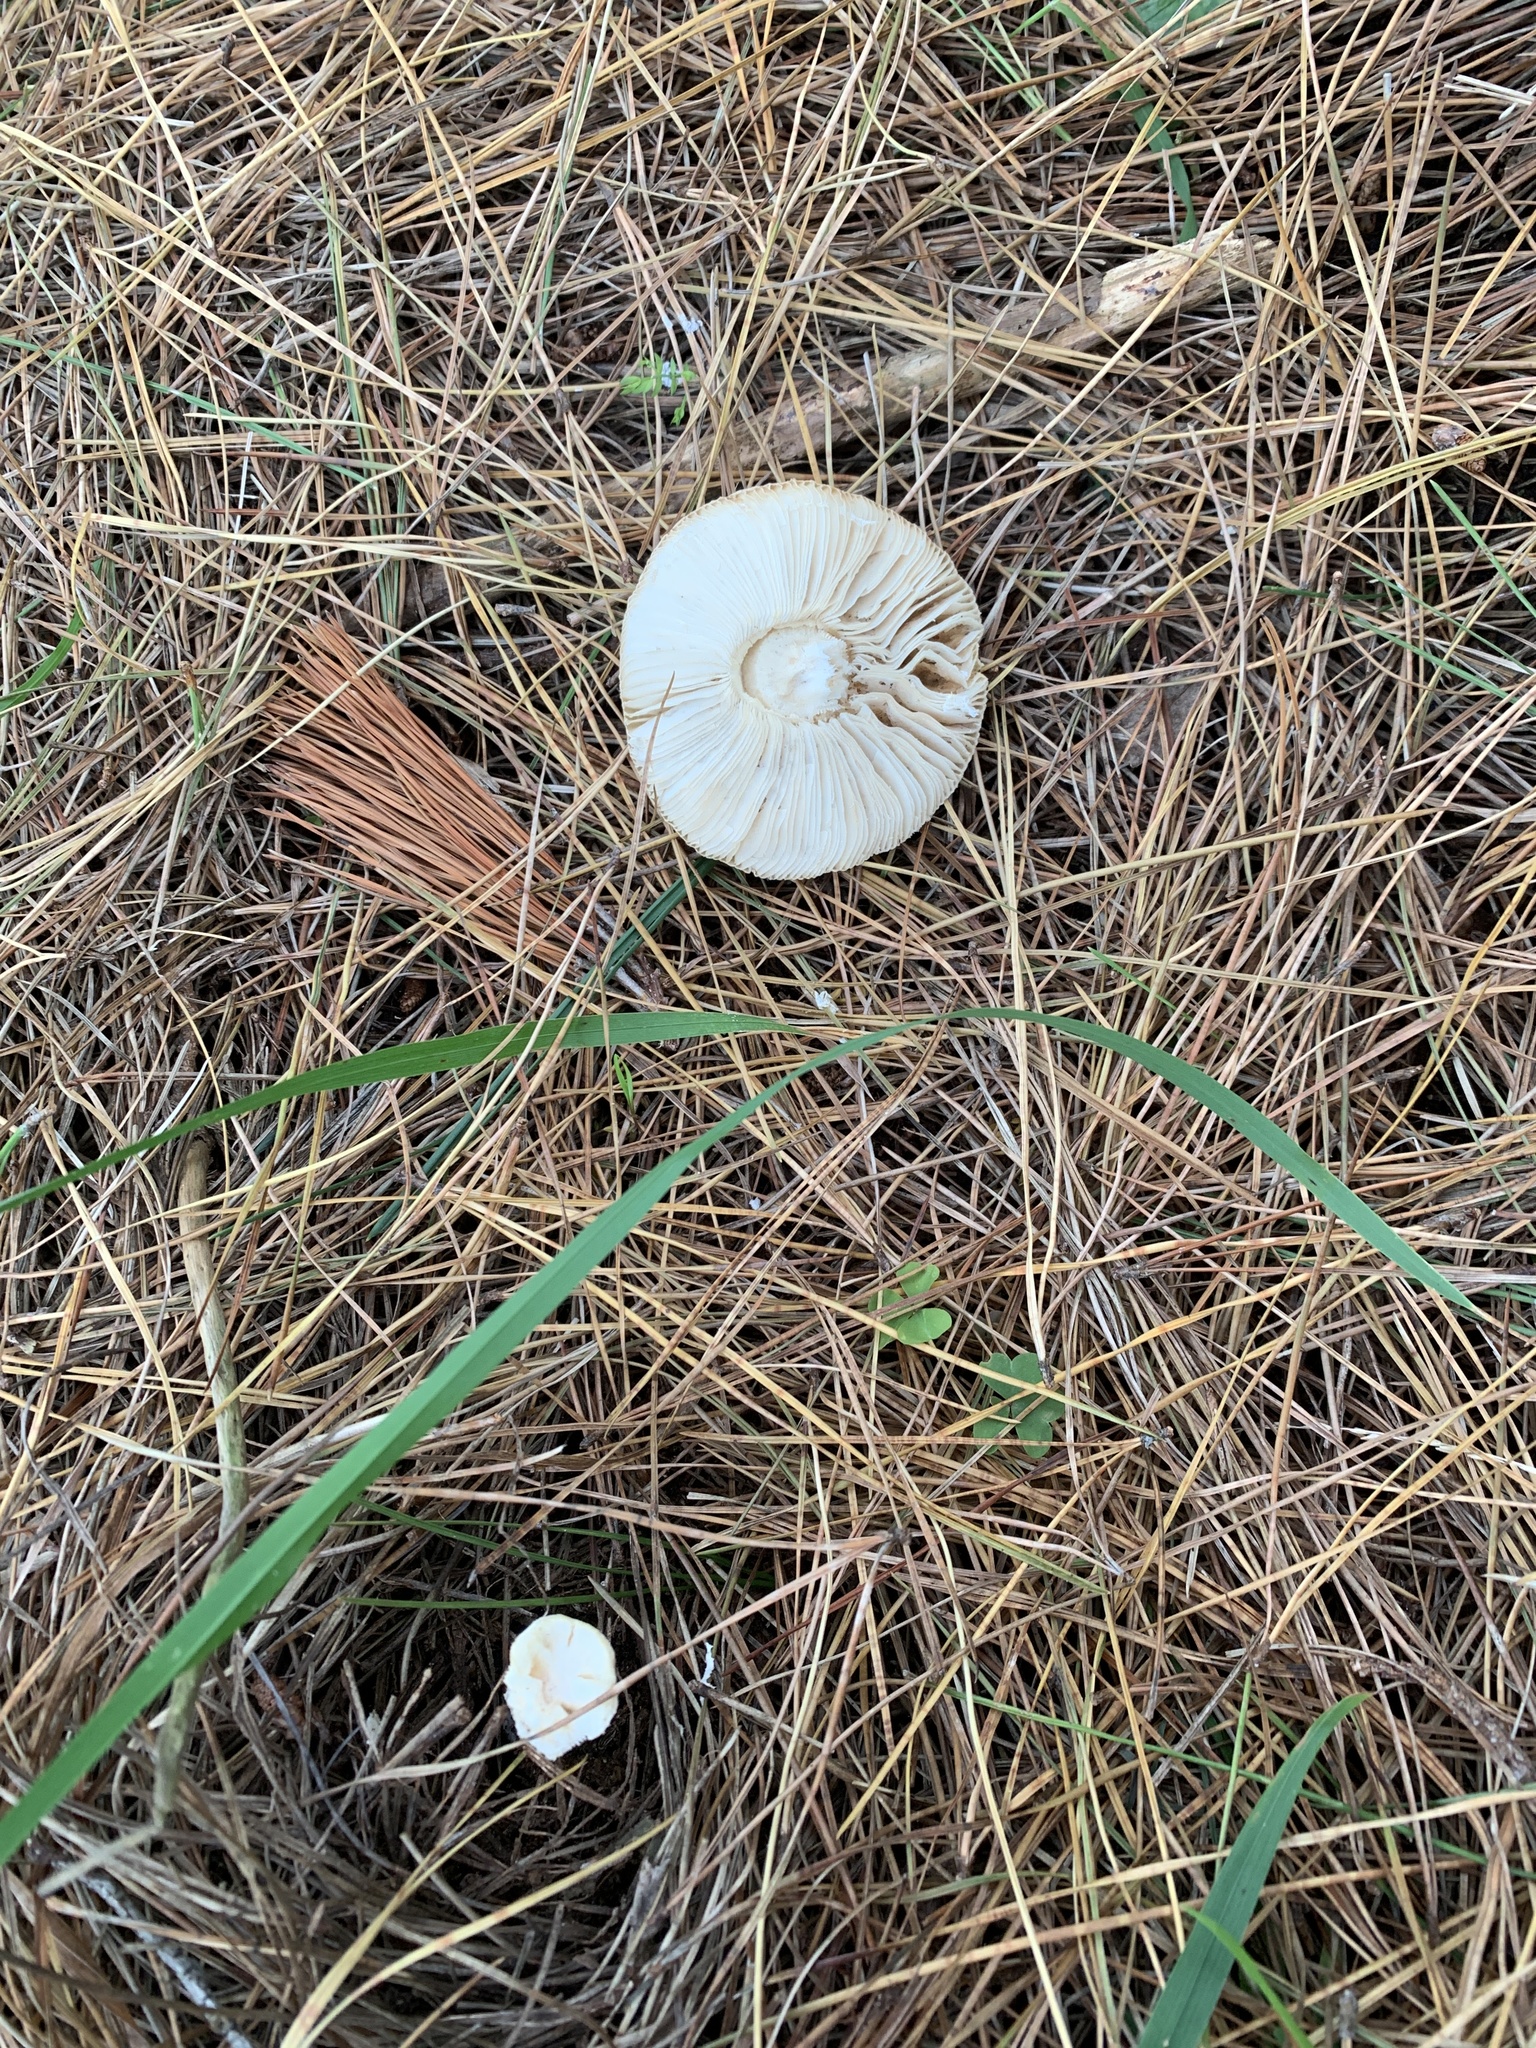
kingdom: Fungi
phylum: Basidiomycota
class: Agaricomycetes
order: Agaricales
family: Amanitaceae
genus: Amanita
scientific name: Amanita gemmata
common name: Jewelled amanita
